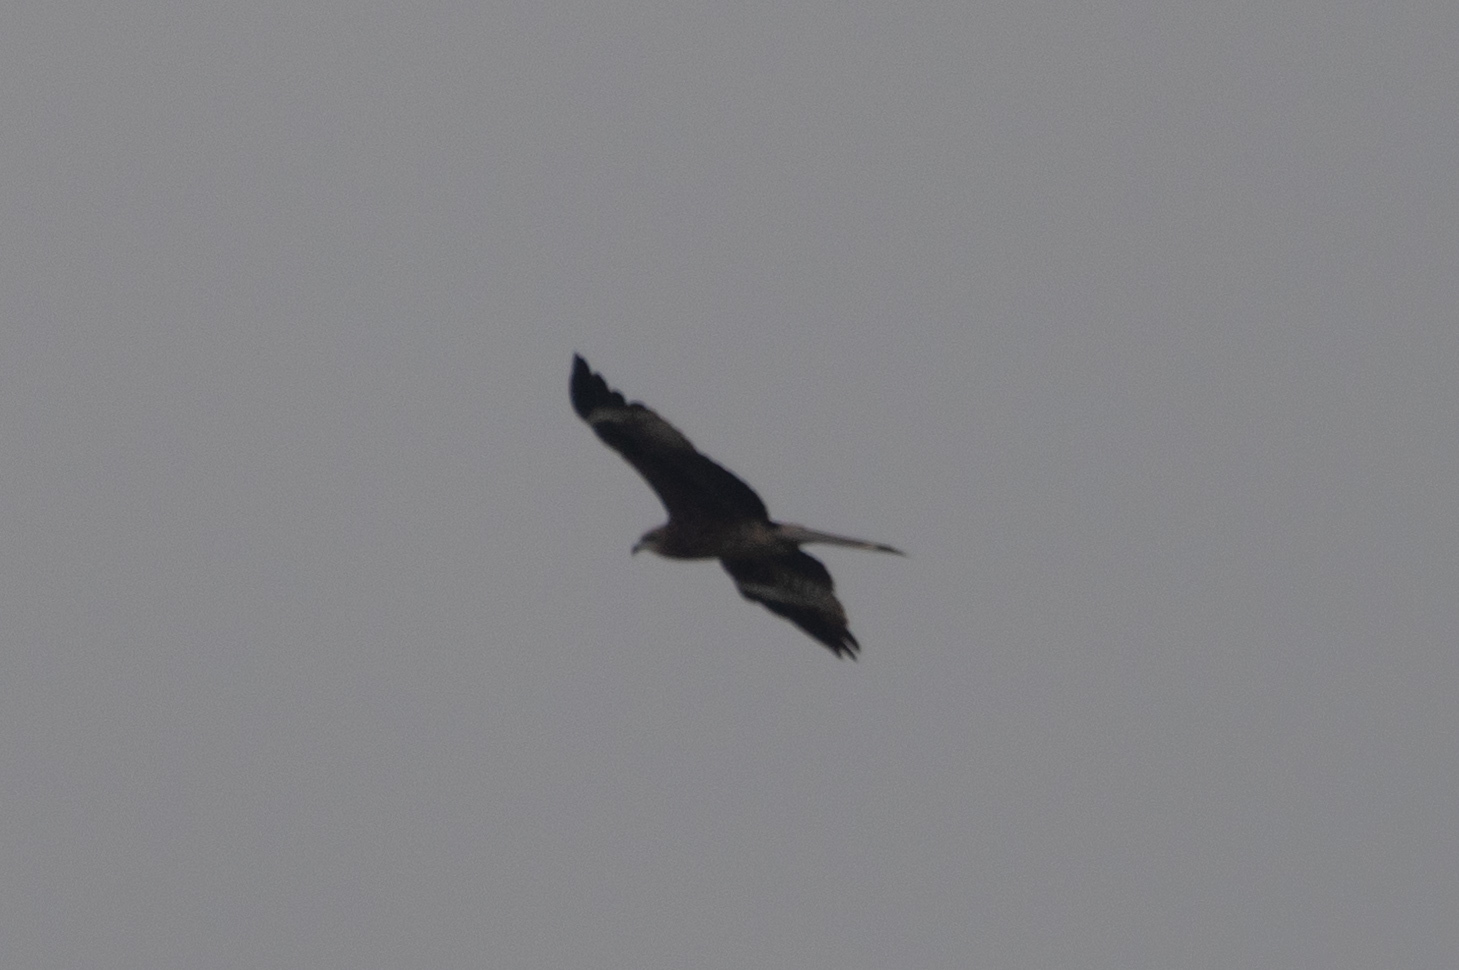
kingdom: Animalia
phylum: Chordata
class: Aves
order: Accipitriformes
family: Accipitridae
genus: Milvus
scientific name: Milvus migrans
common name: Black kite
